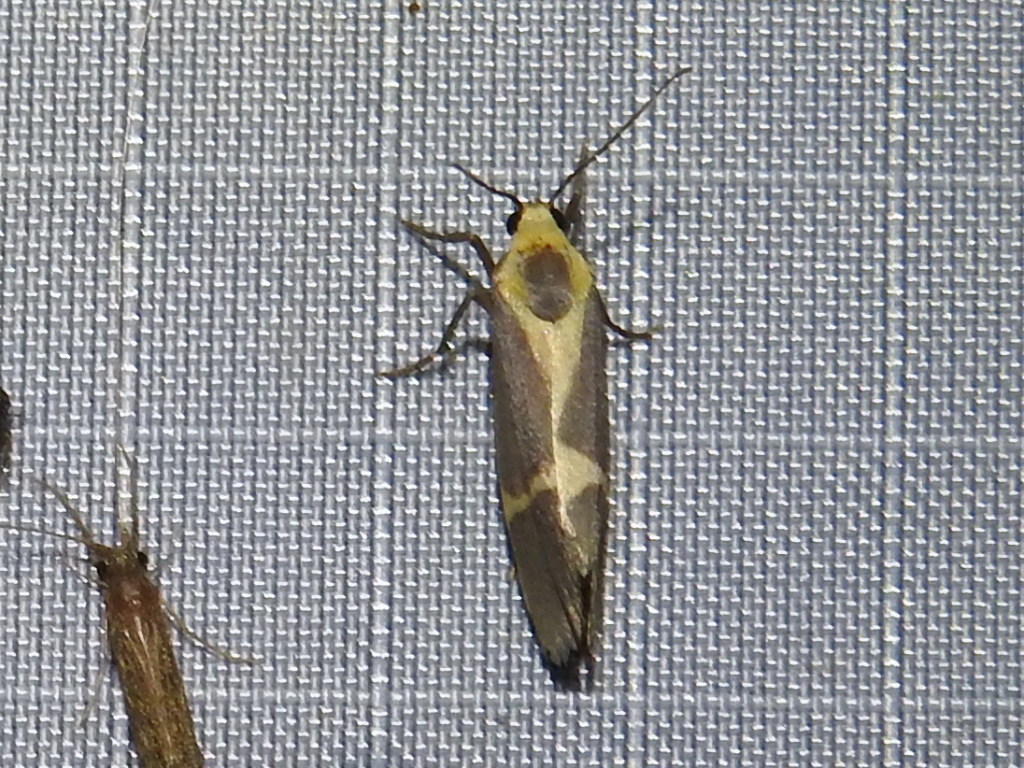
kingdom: Animalia
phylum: Arthropoda
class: Insecta
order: Lepidoptera
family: Erebidae
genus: Cisthene
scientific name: Cisthene tenuifascia
